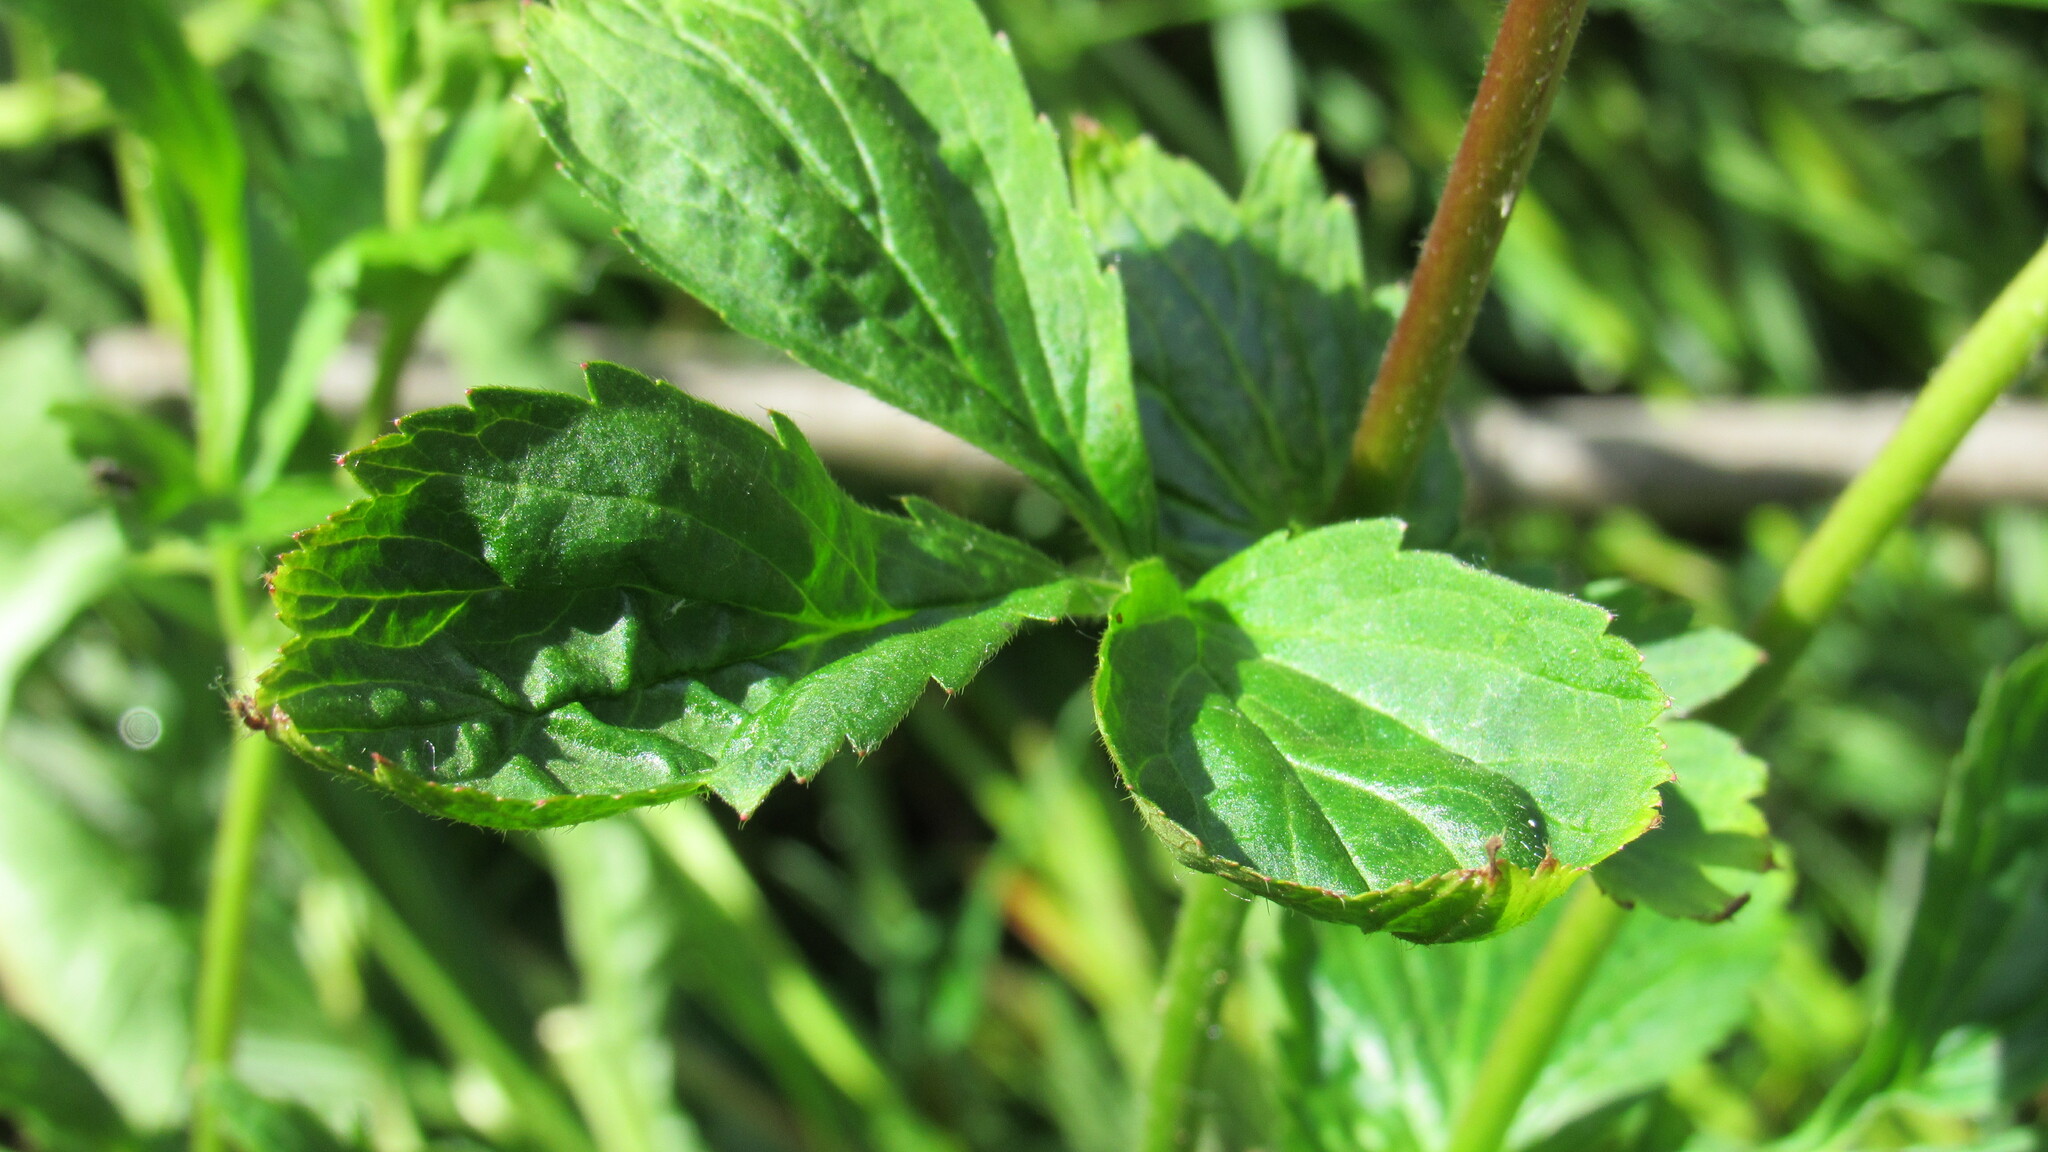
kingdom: Plantae
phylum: Tracheophyta
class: Magnoliopsida
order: Rosales
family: Rosaceae
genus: Geum
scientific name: Geum aleppicum
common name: Yellow avens
